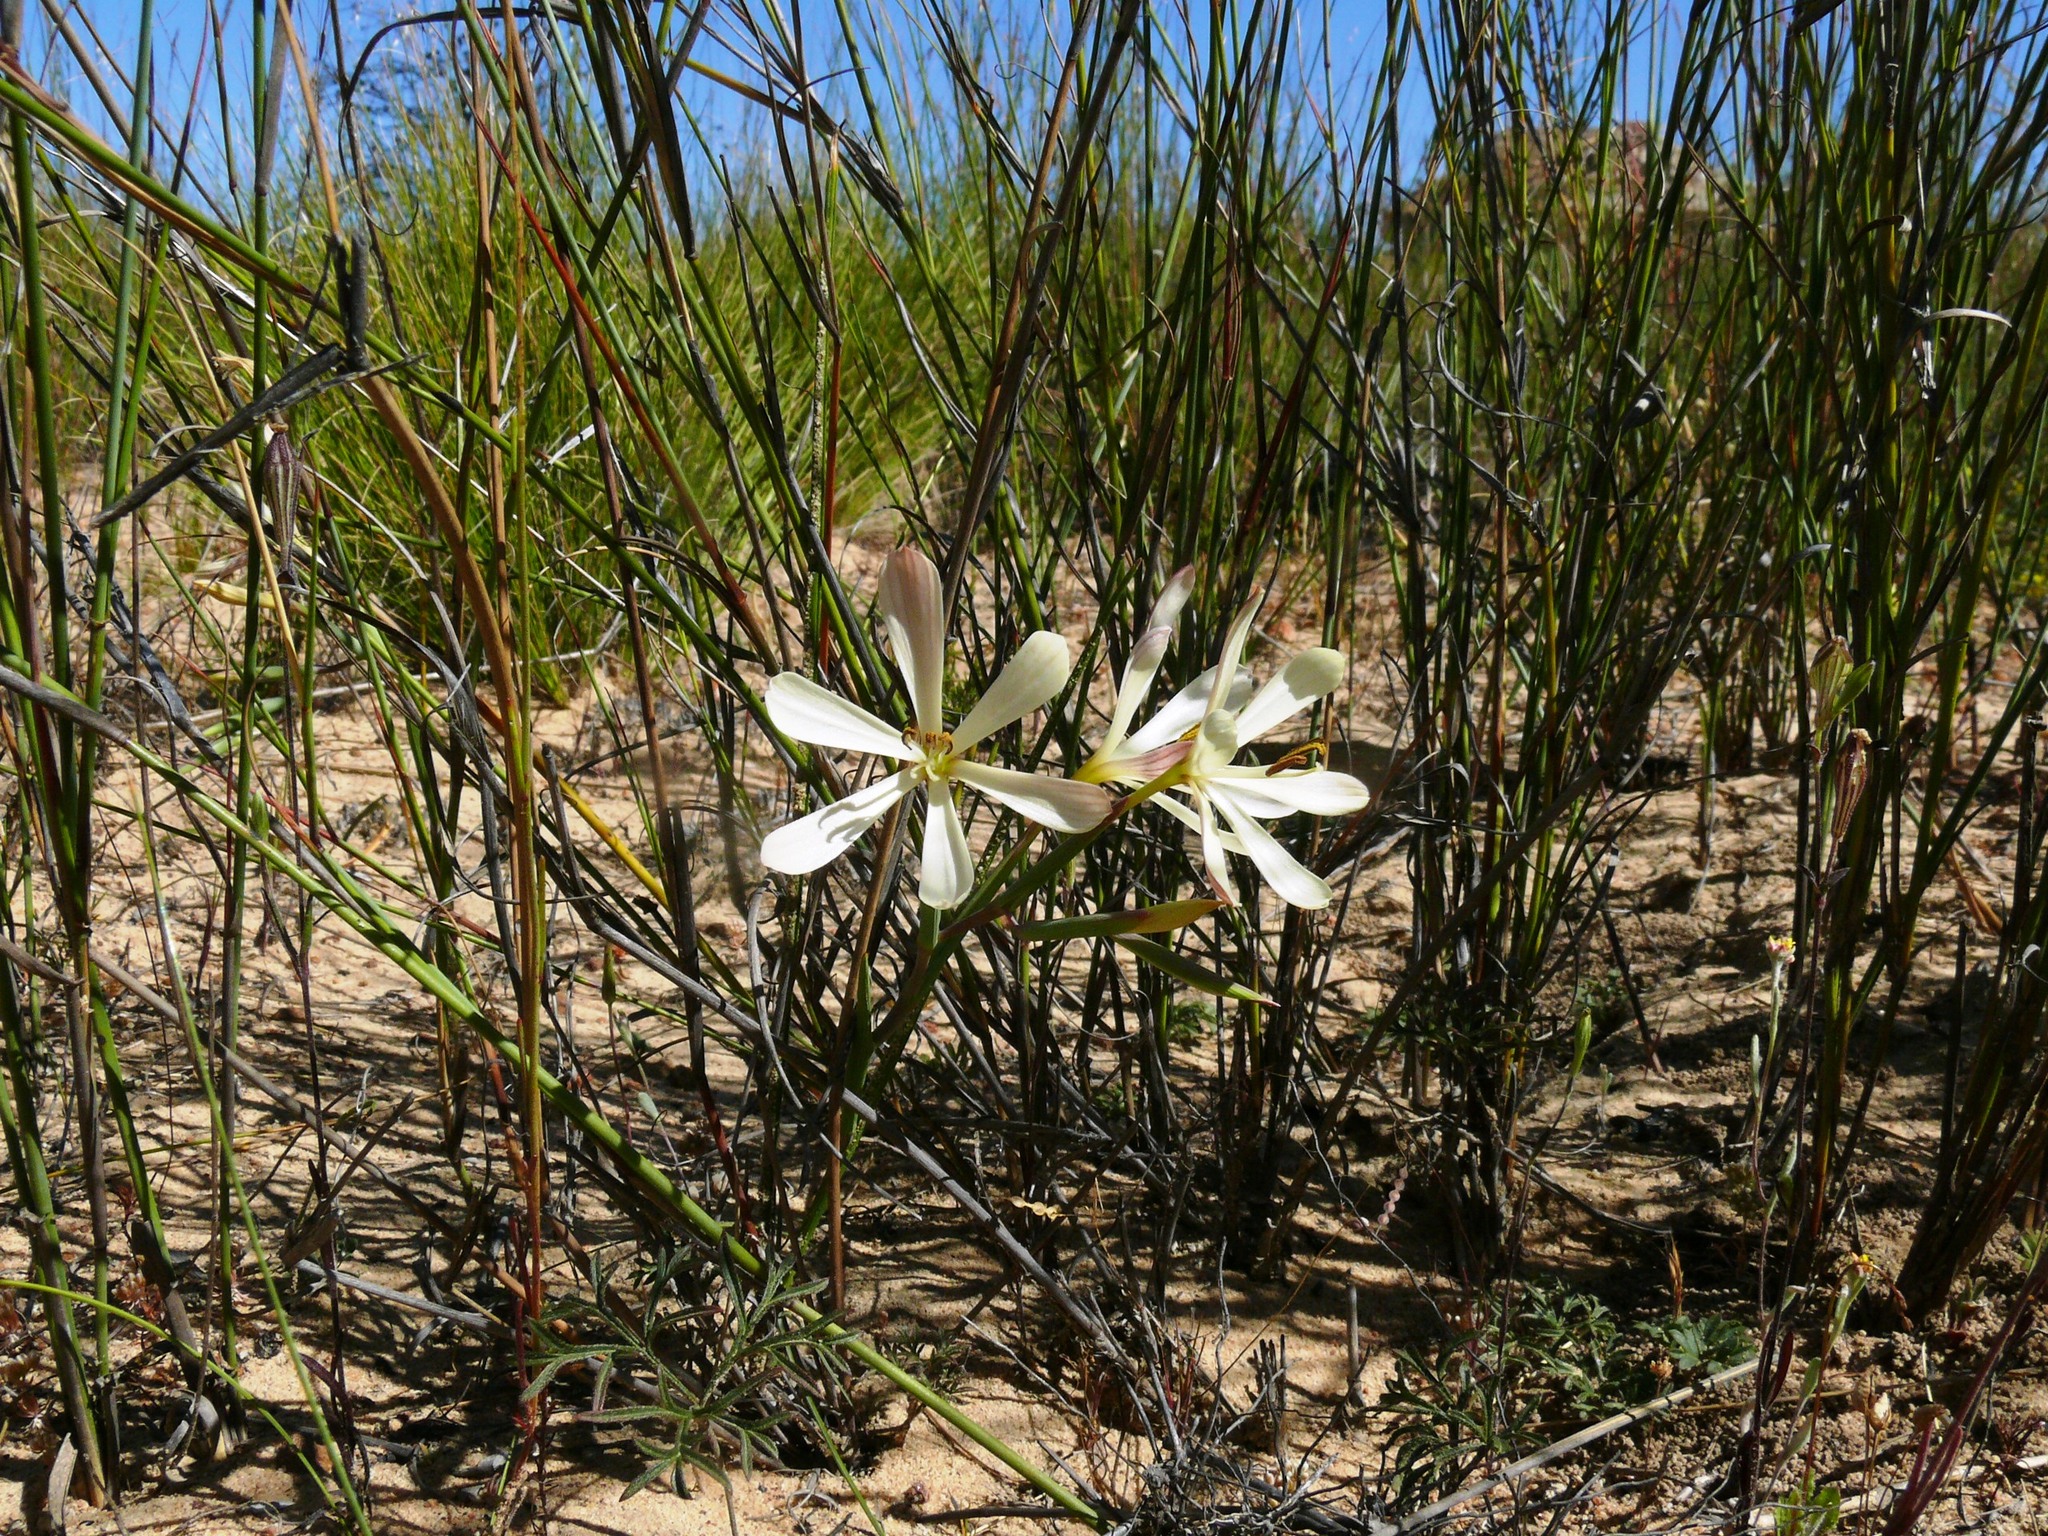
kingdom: Plantae
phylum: Tracheophyta
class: Liliopsida
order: Asparagales
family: Iridaceae
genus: Geissorhiza
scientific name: Geissorhiza exscapa
